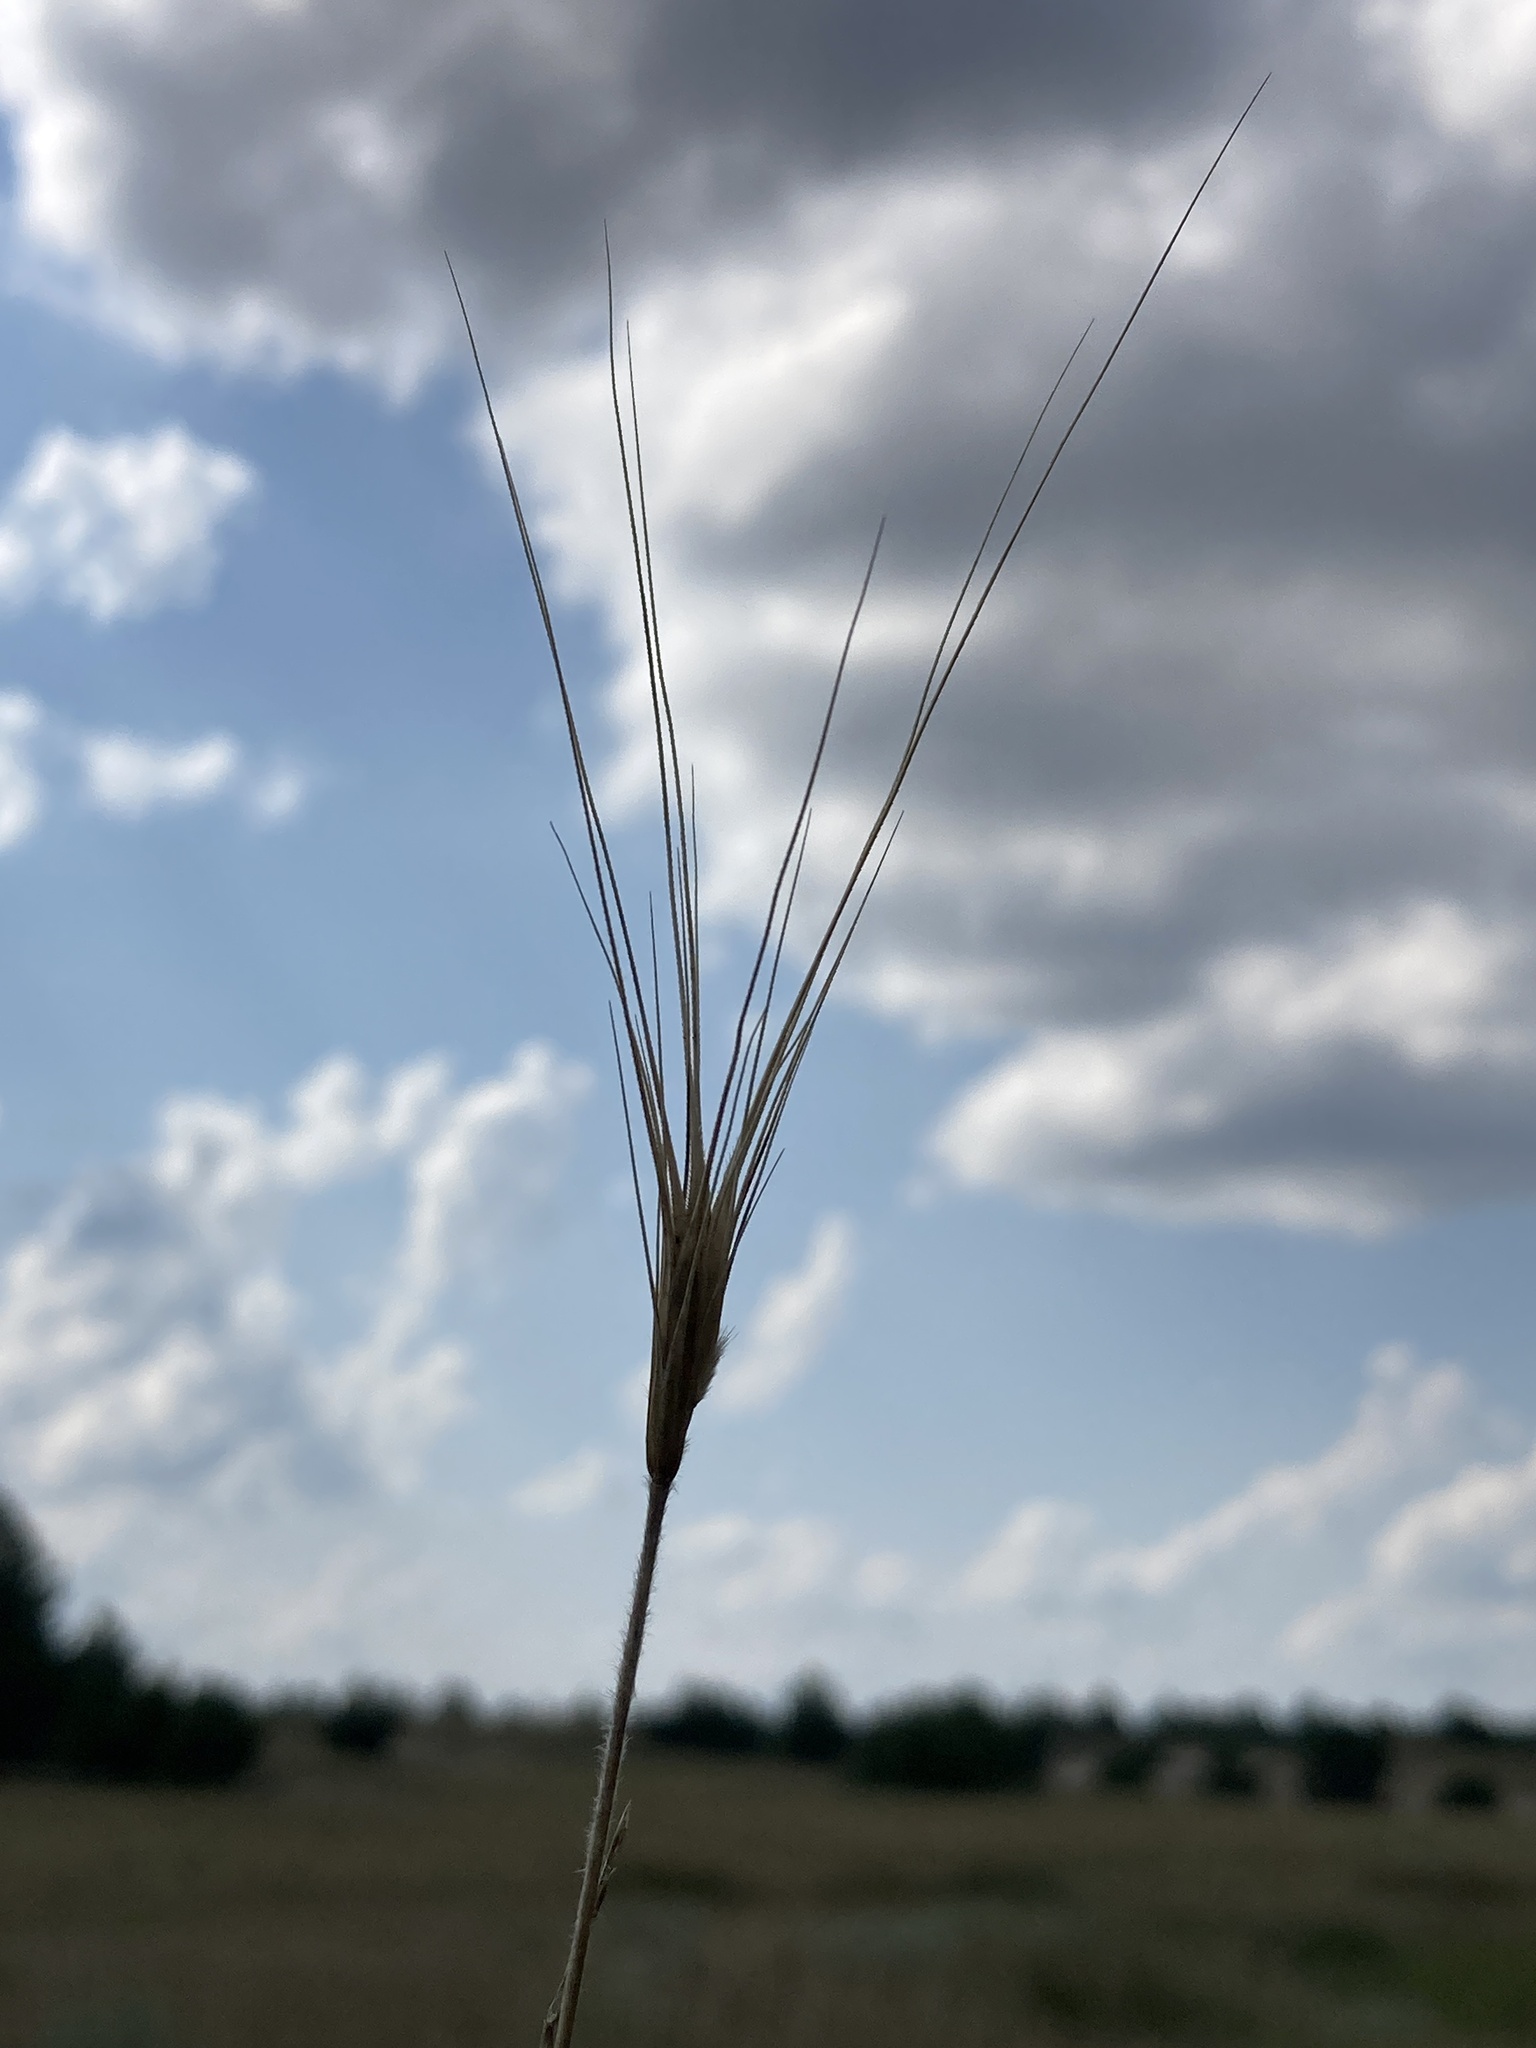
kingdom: Plantae
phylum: Tracheophyta
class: Liliopsida
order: Poales
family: Poaceae
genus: Secale
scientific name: Secale sylvestre
